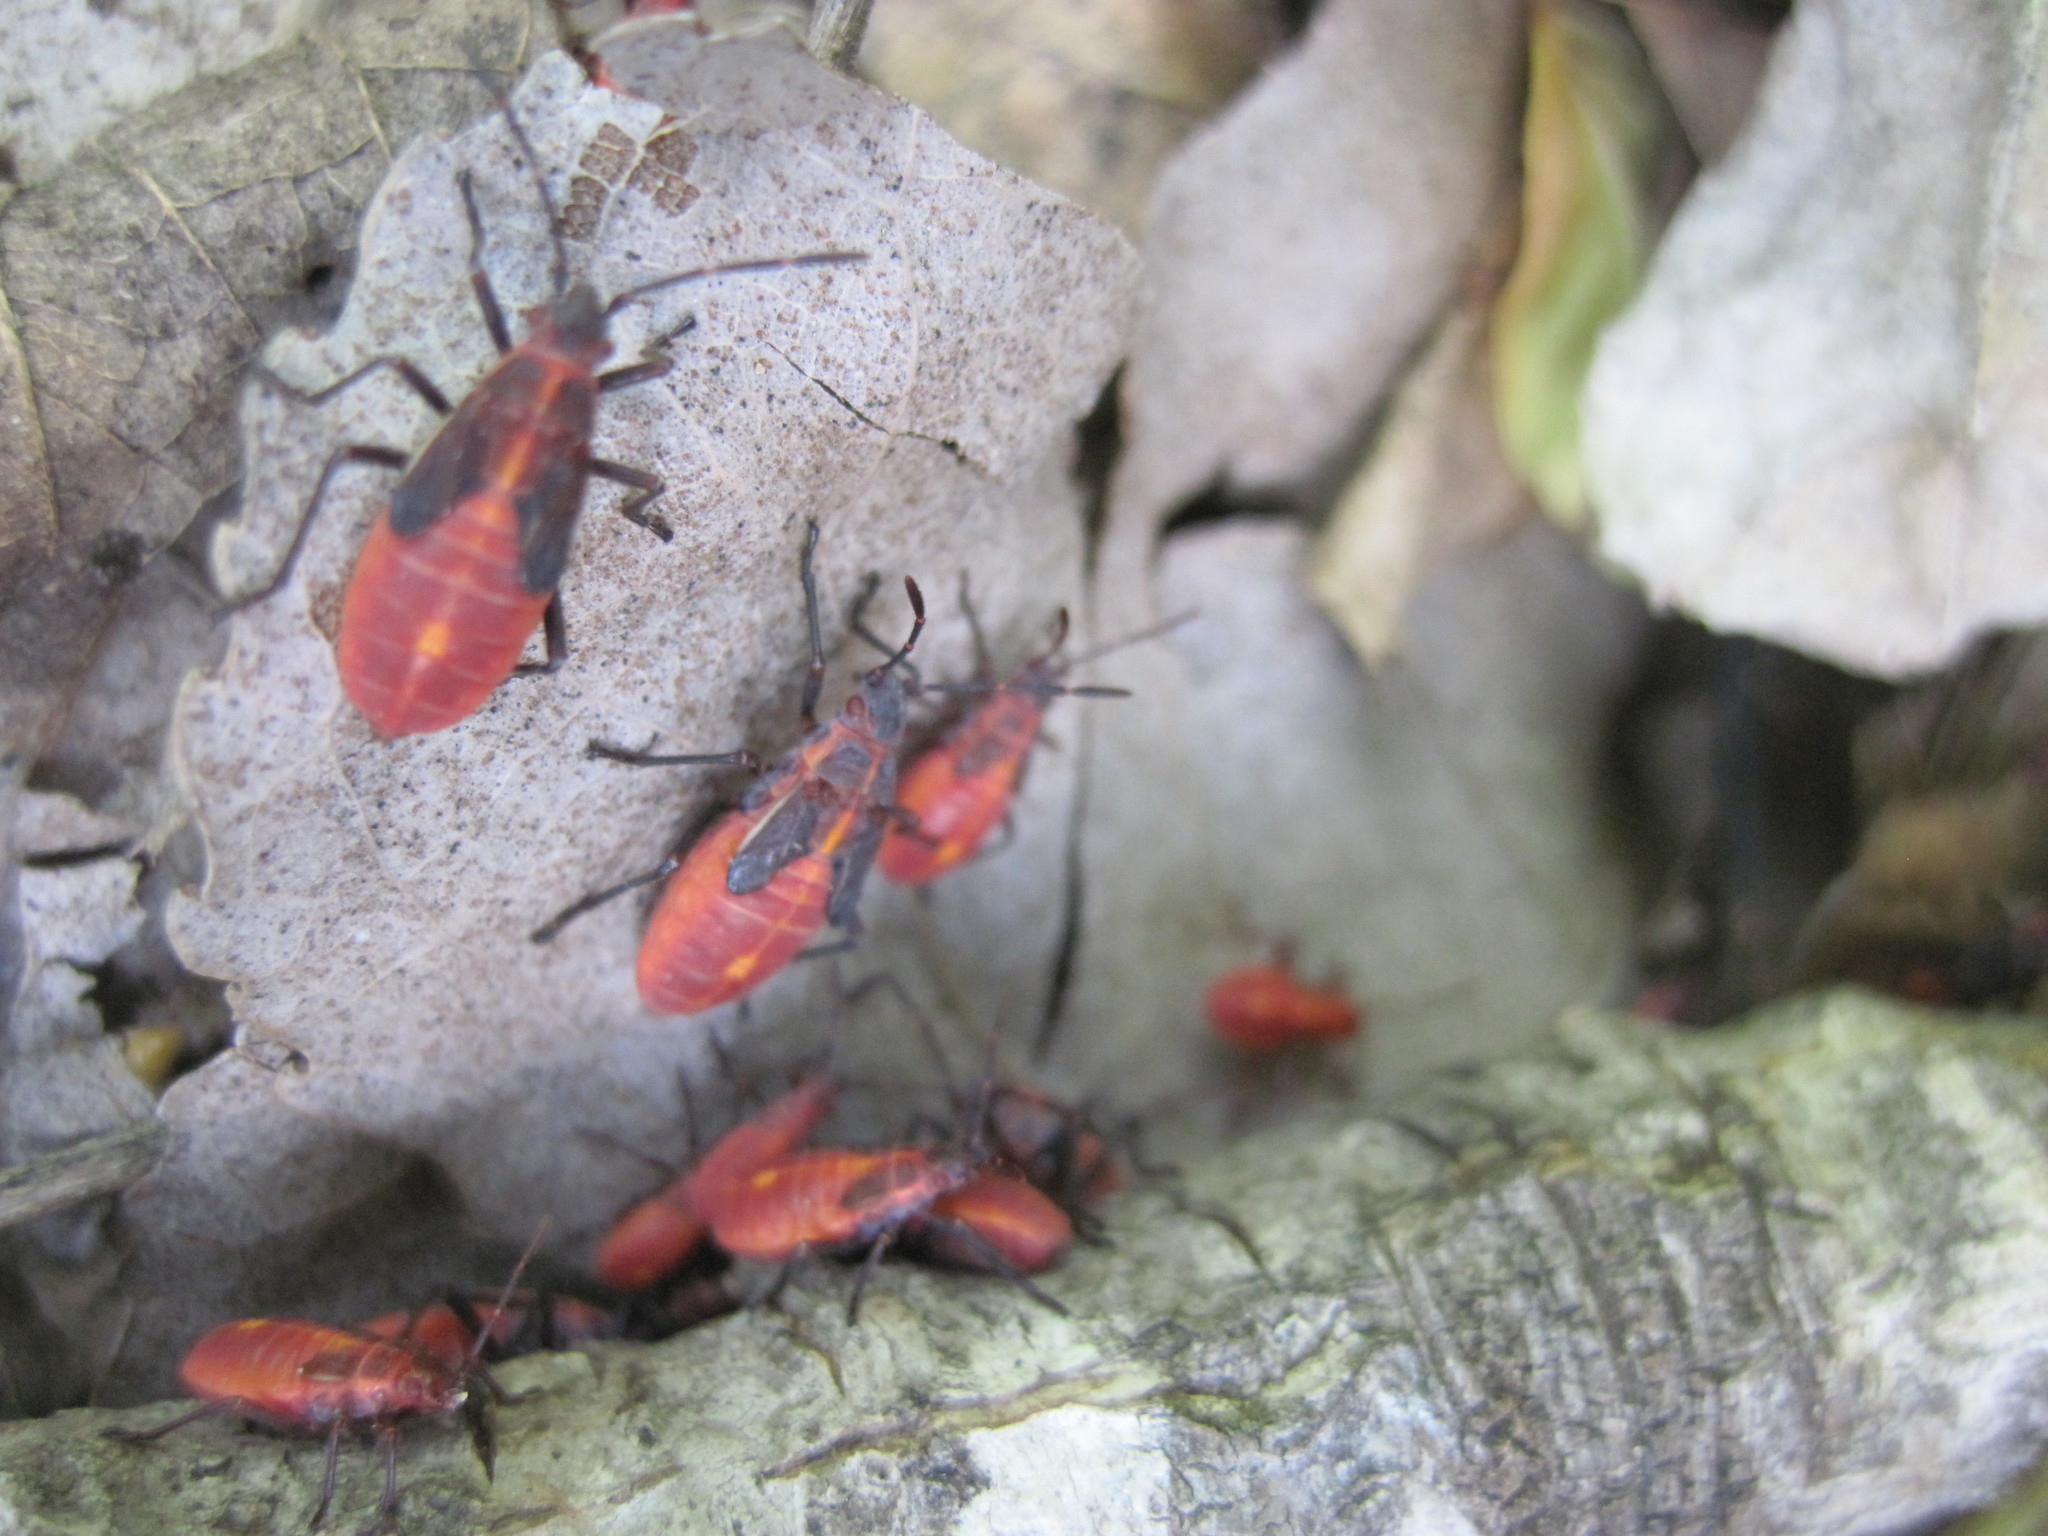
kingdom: Animalia
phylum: Arthropoda
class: Insecta
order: Hemiptera
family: Rhopalidae
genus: Boisea
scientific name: Boisea trivittata
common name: Boxelder bug
